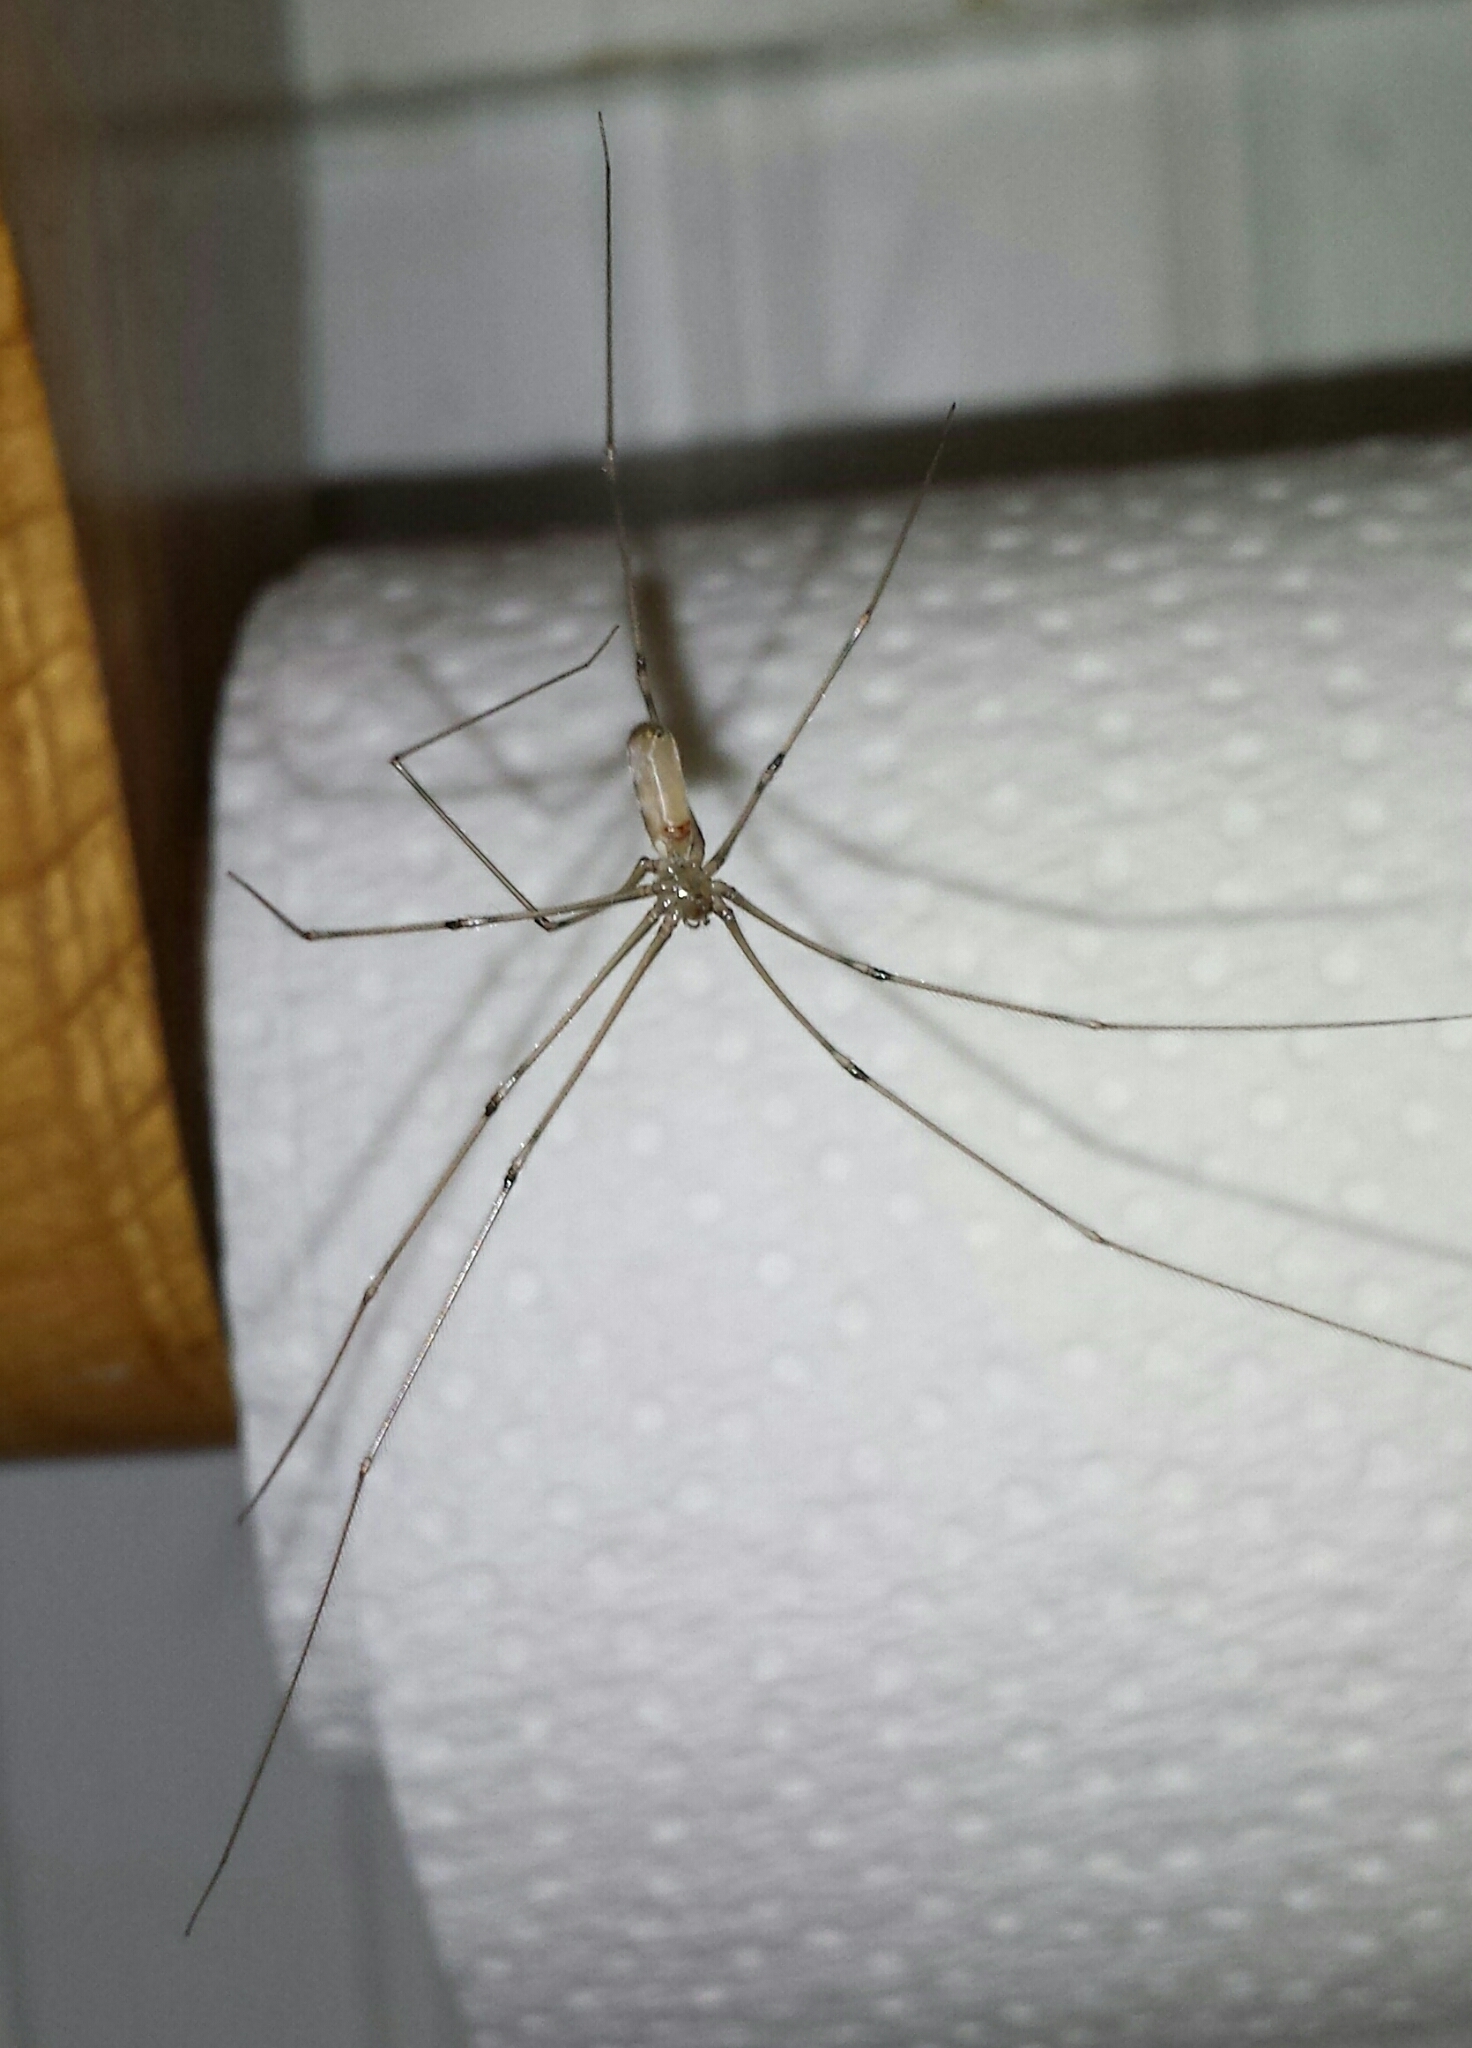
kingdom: Animalia
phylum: Arthropoda
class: Arachnida
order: Araneae
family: Pholcidae
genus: Pholcus
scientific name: Pholcus phalangioides
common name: Longbodied cellar spider
